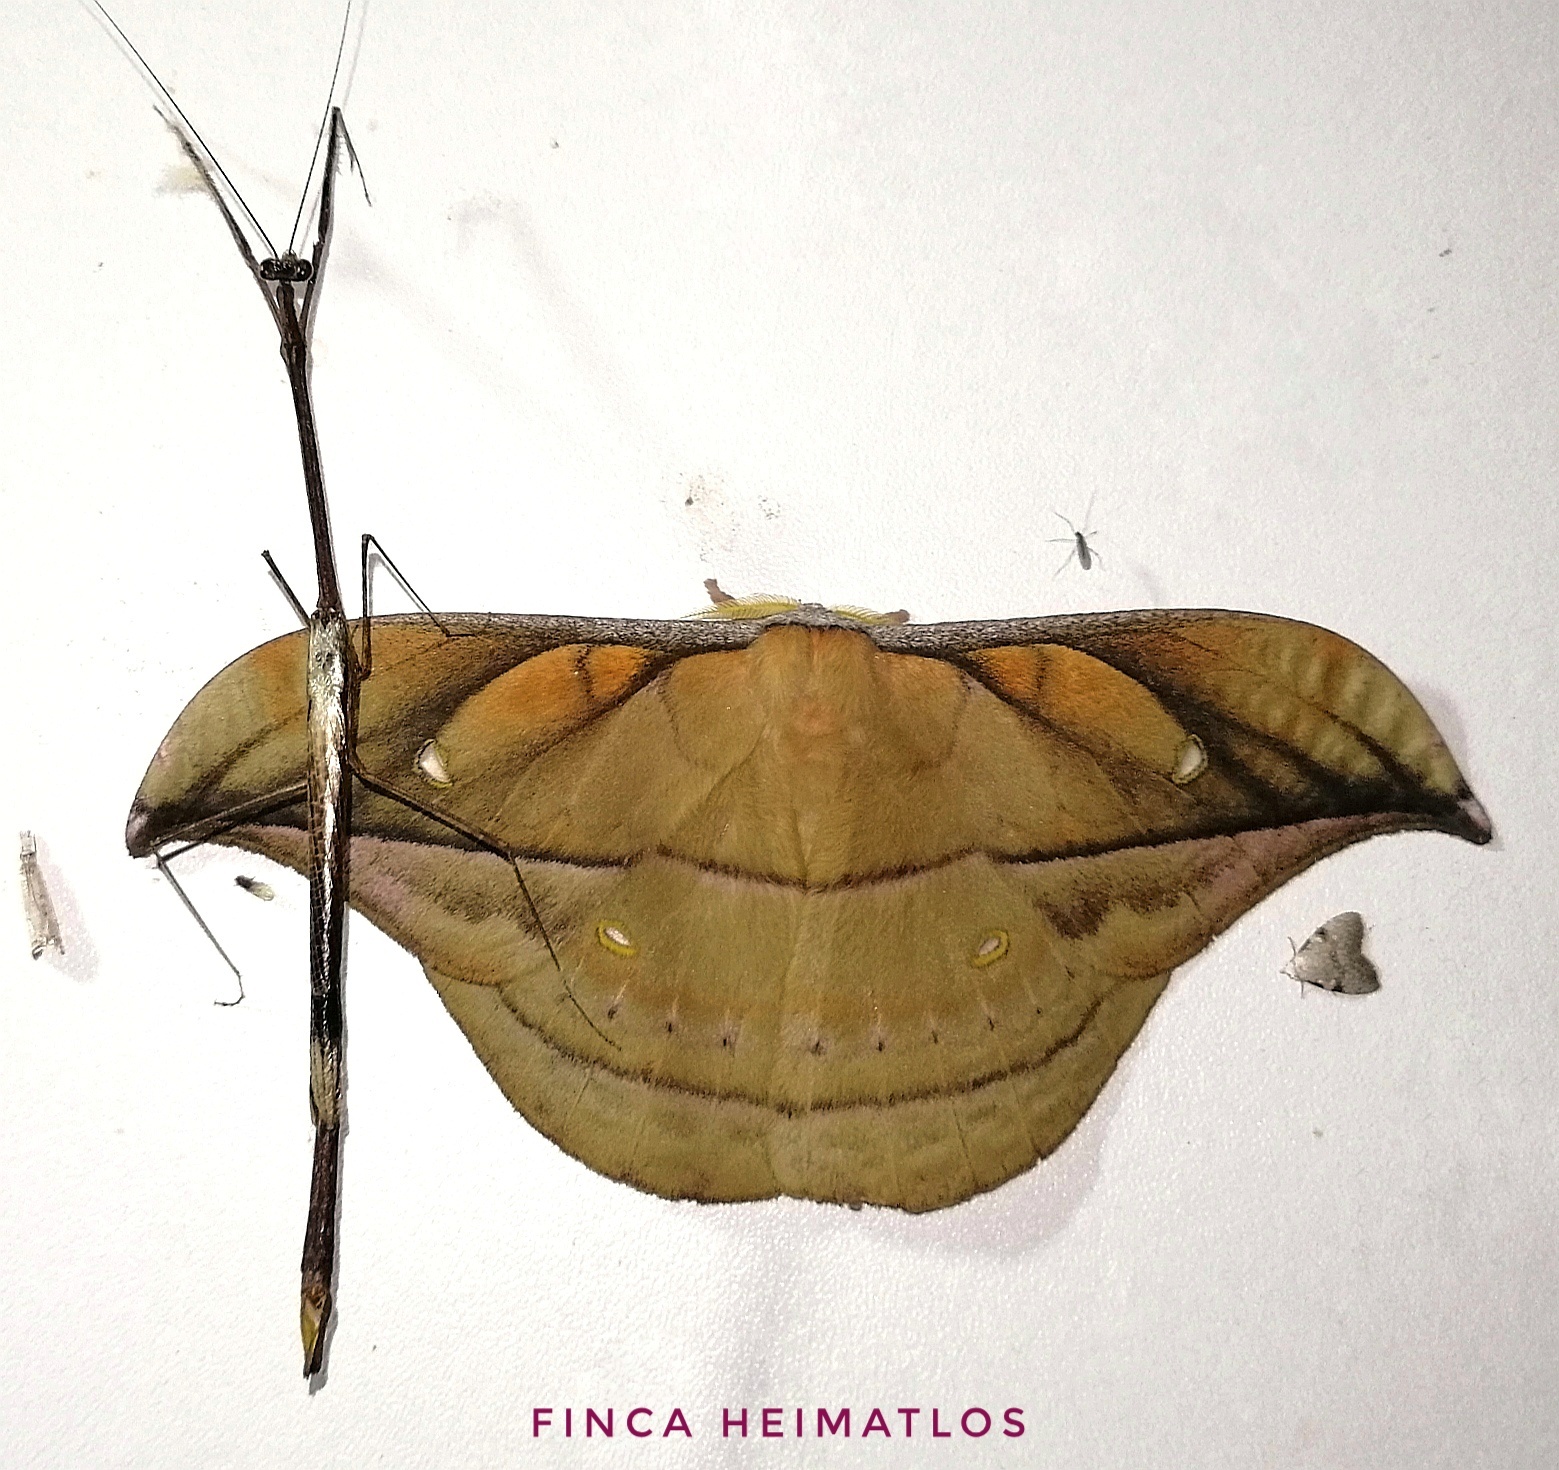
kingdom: Animalia
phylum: Arthropoda
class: Insecta
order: Lepidoptera
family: Saturniidae
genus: Copaxa
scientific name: Copaxa decrescens
